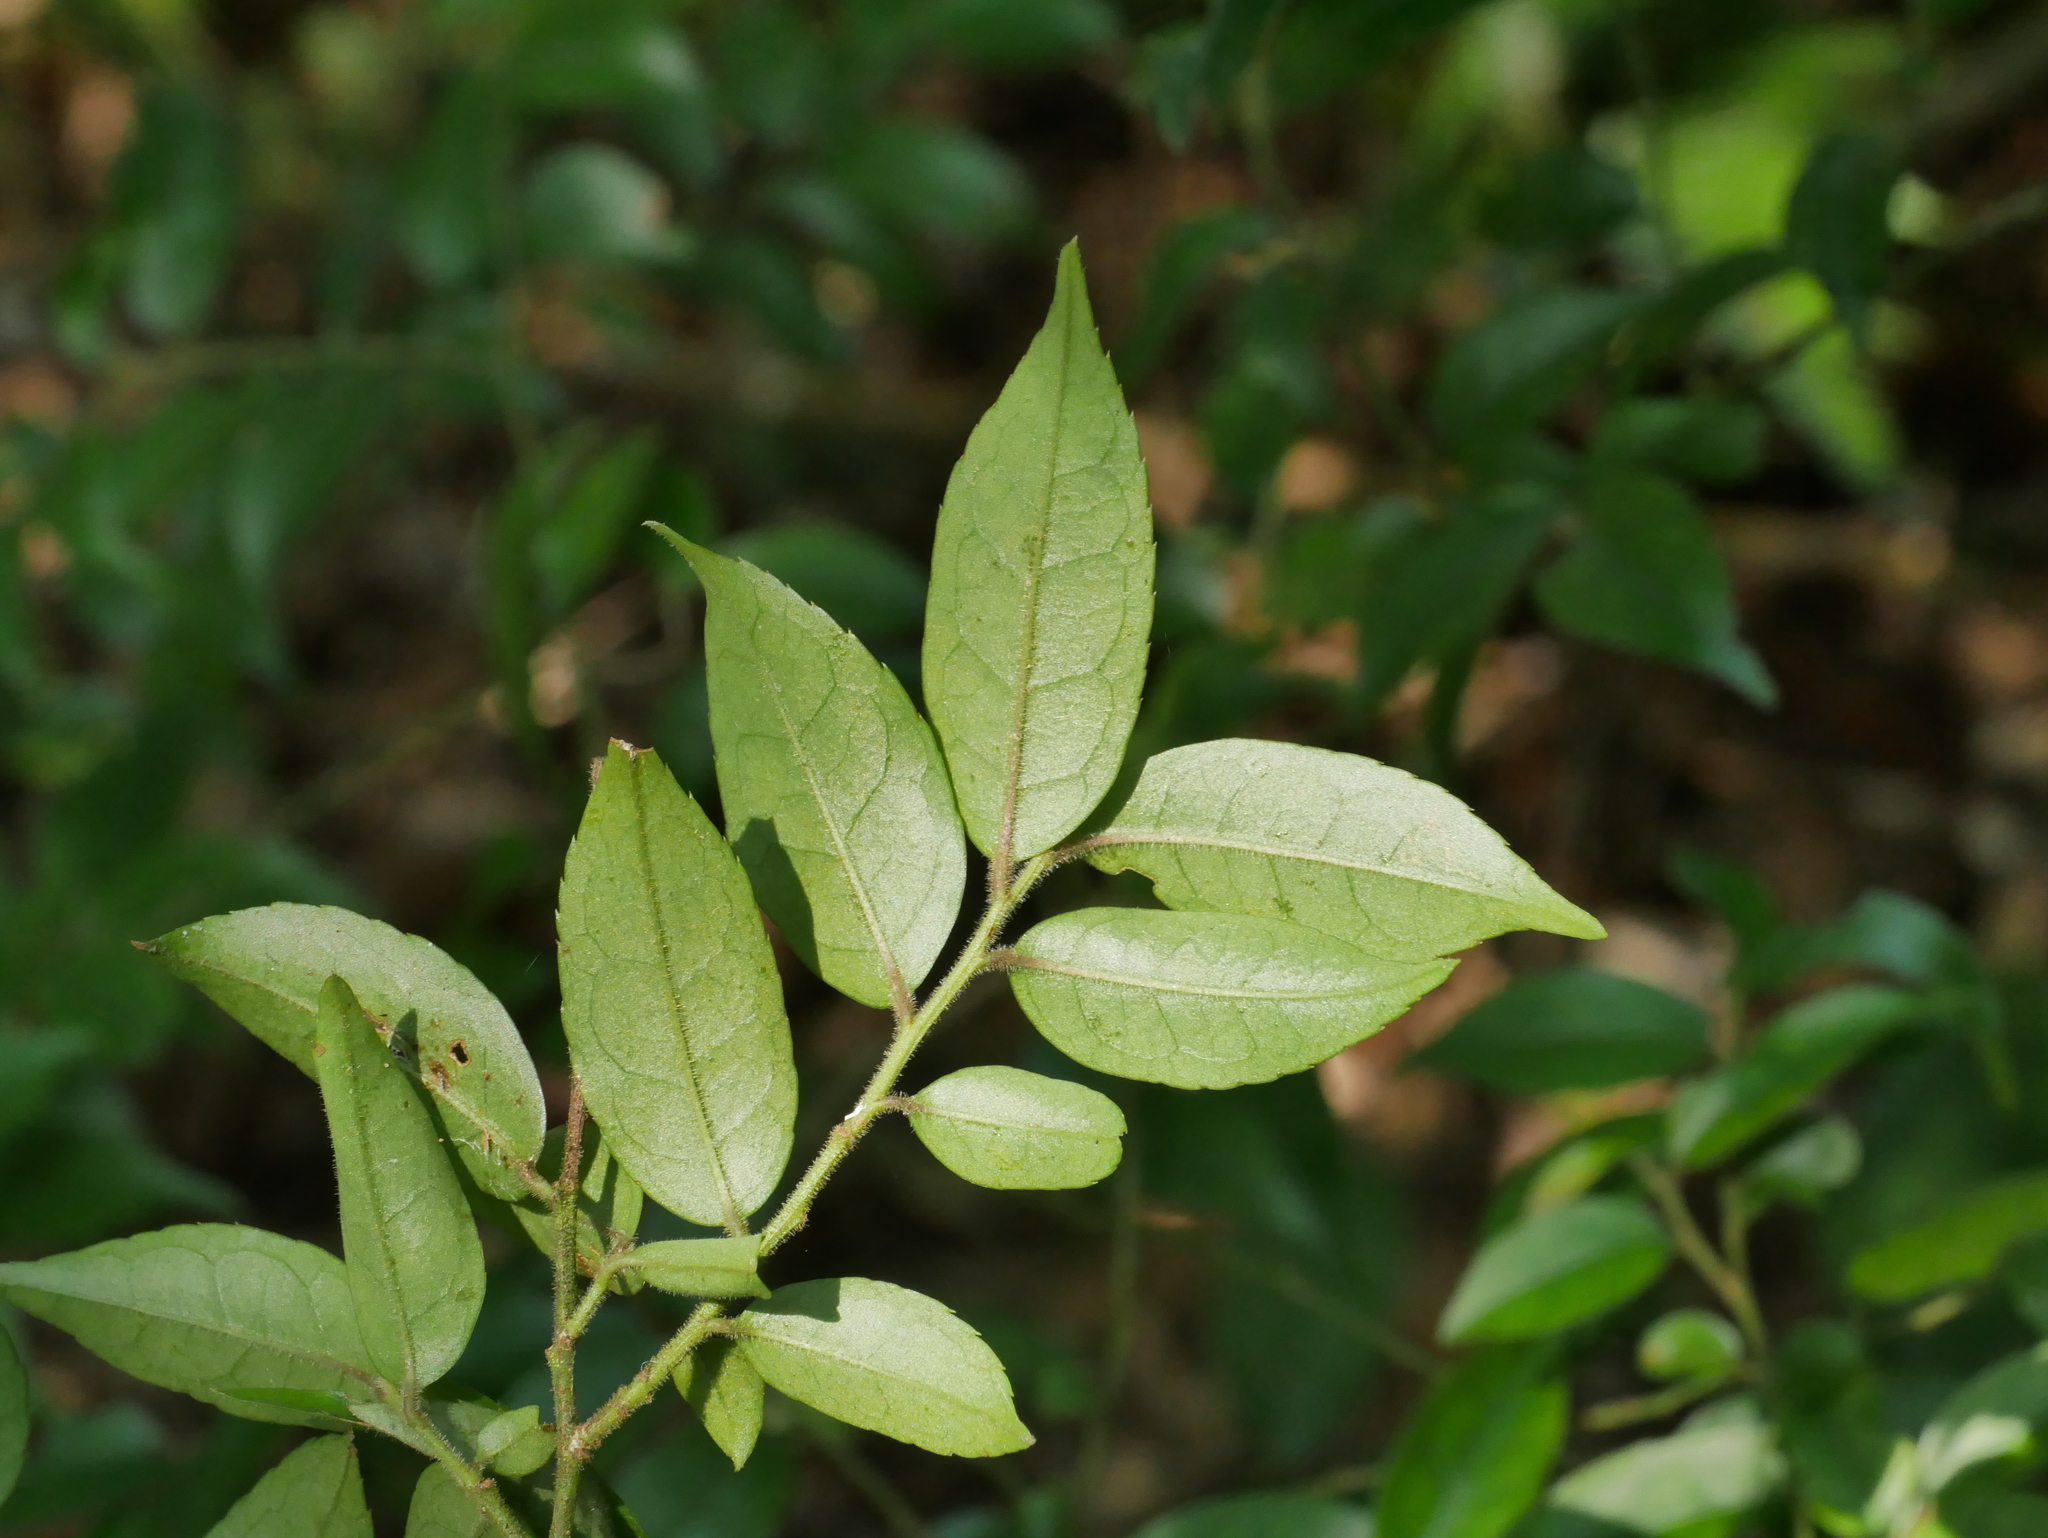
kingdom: Plantae
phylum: Tracheophyta
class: Magnoliopsida
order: Aquifoliales
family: Aquifoliaceae
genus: Ilex
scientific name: Ilex pubescens
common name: Pubescent holly
